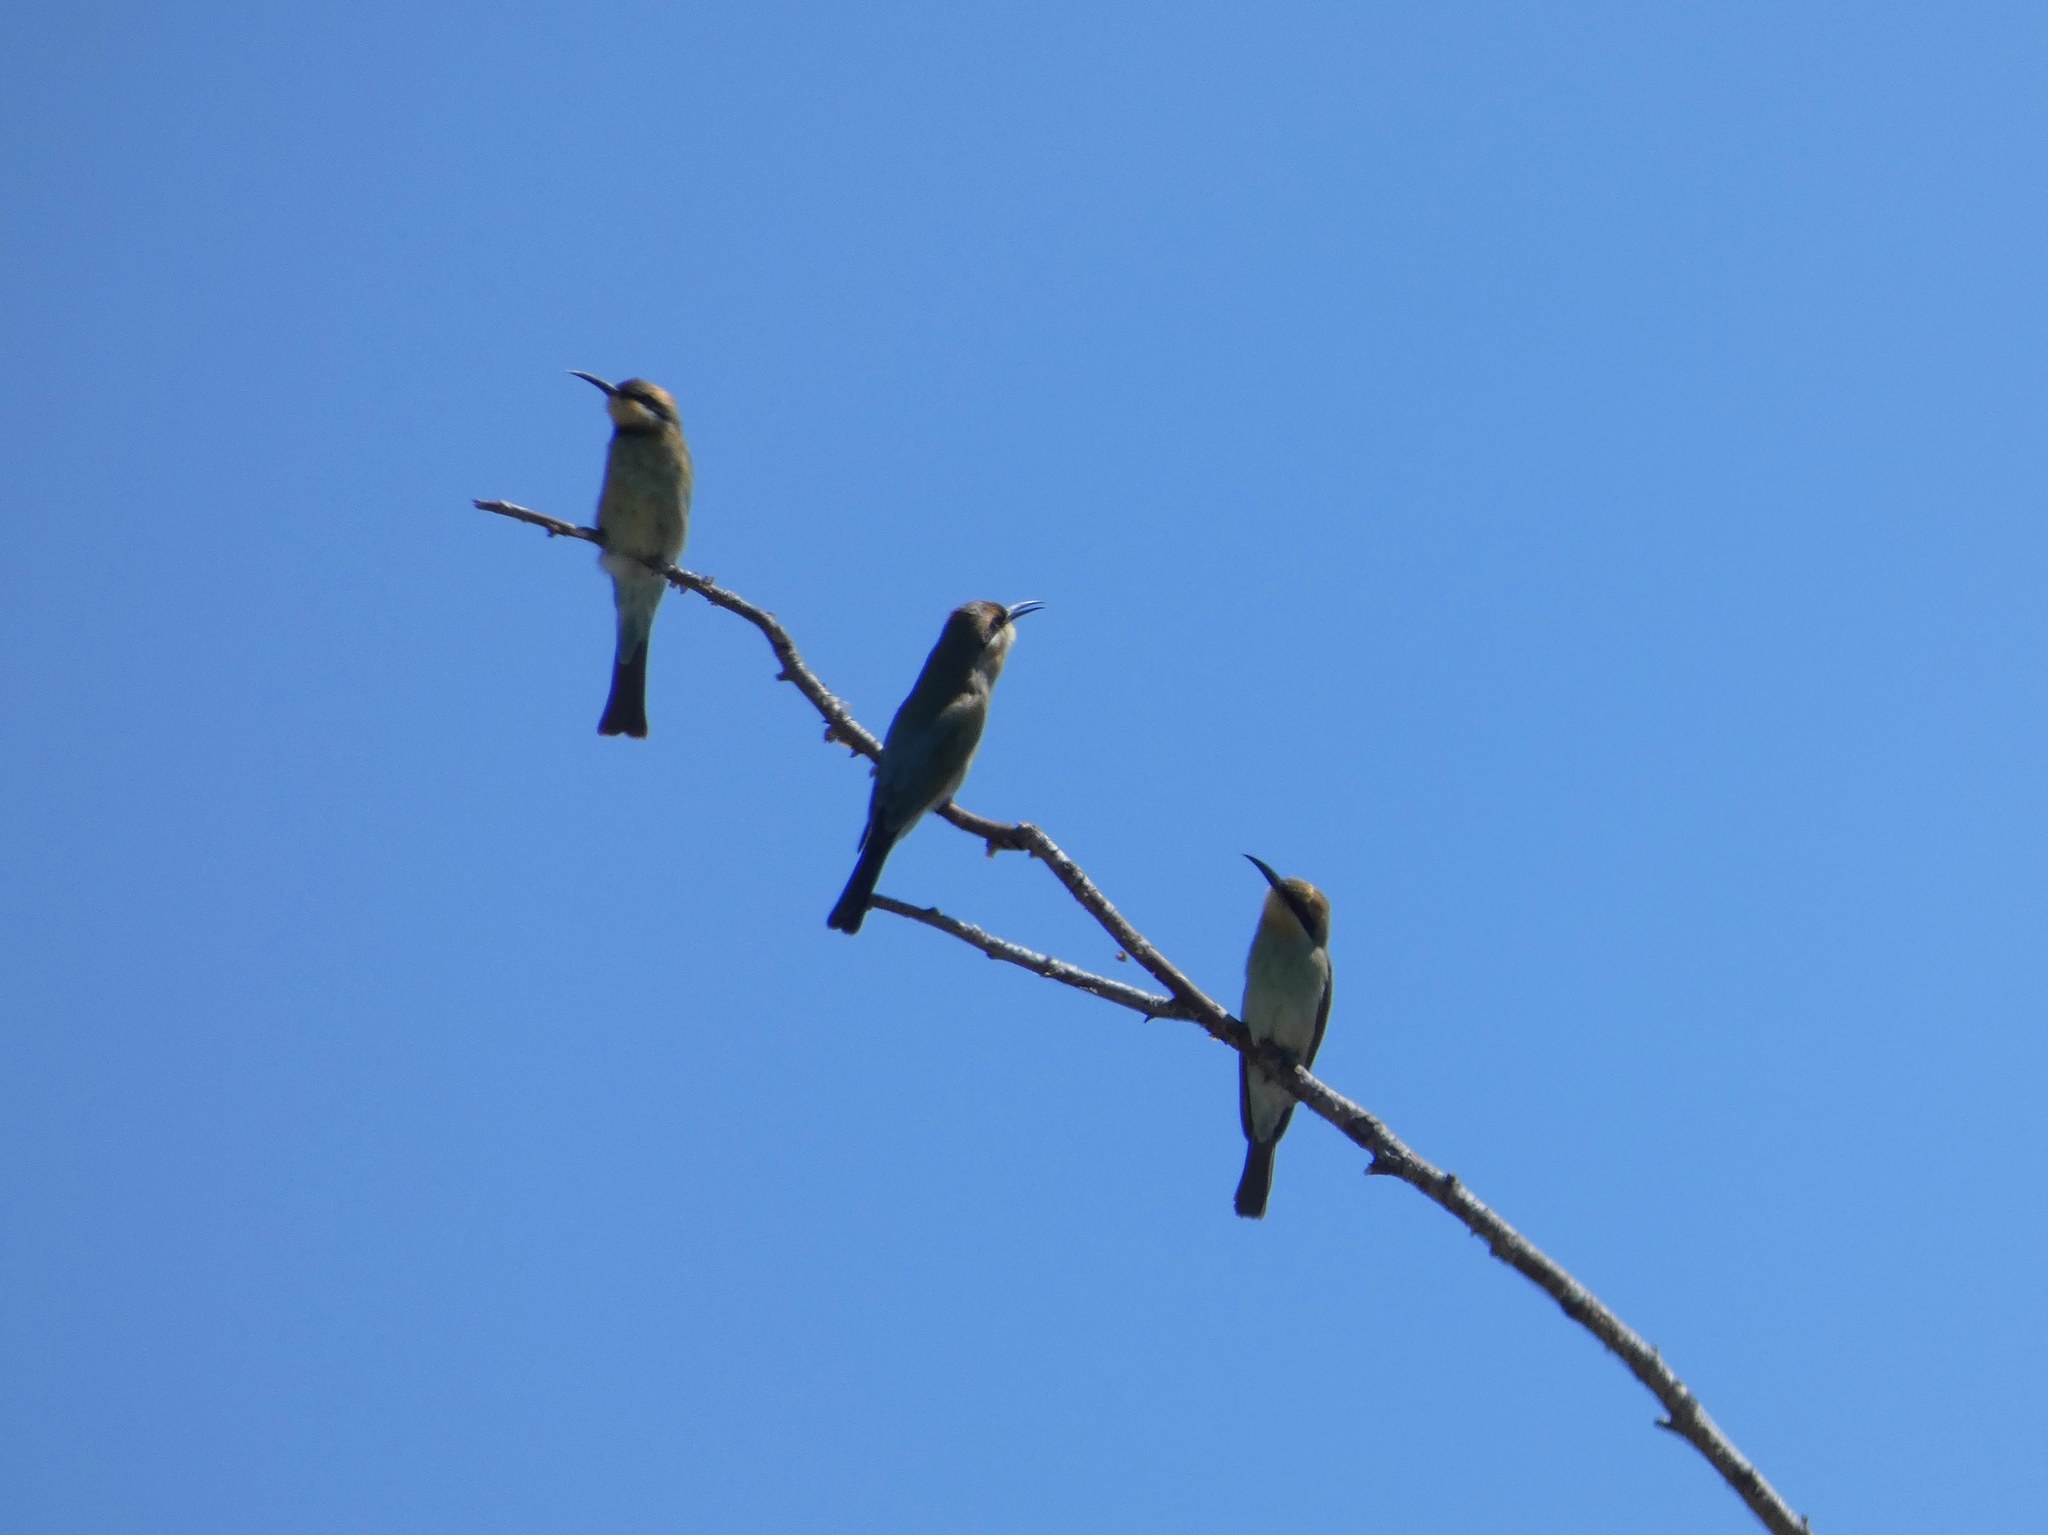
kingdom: Animalia
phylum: Chordata
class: Aves
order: Coraciiformes
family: Meropidae
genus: Merops
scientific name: Merops ornatus
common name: Rainbow bee-eater
